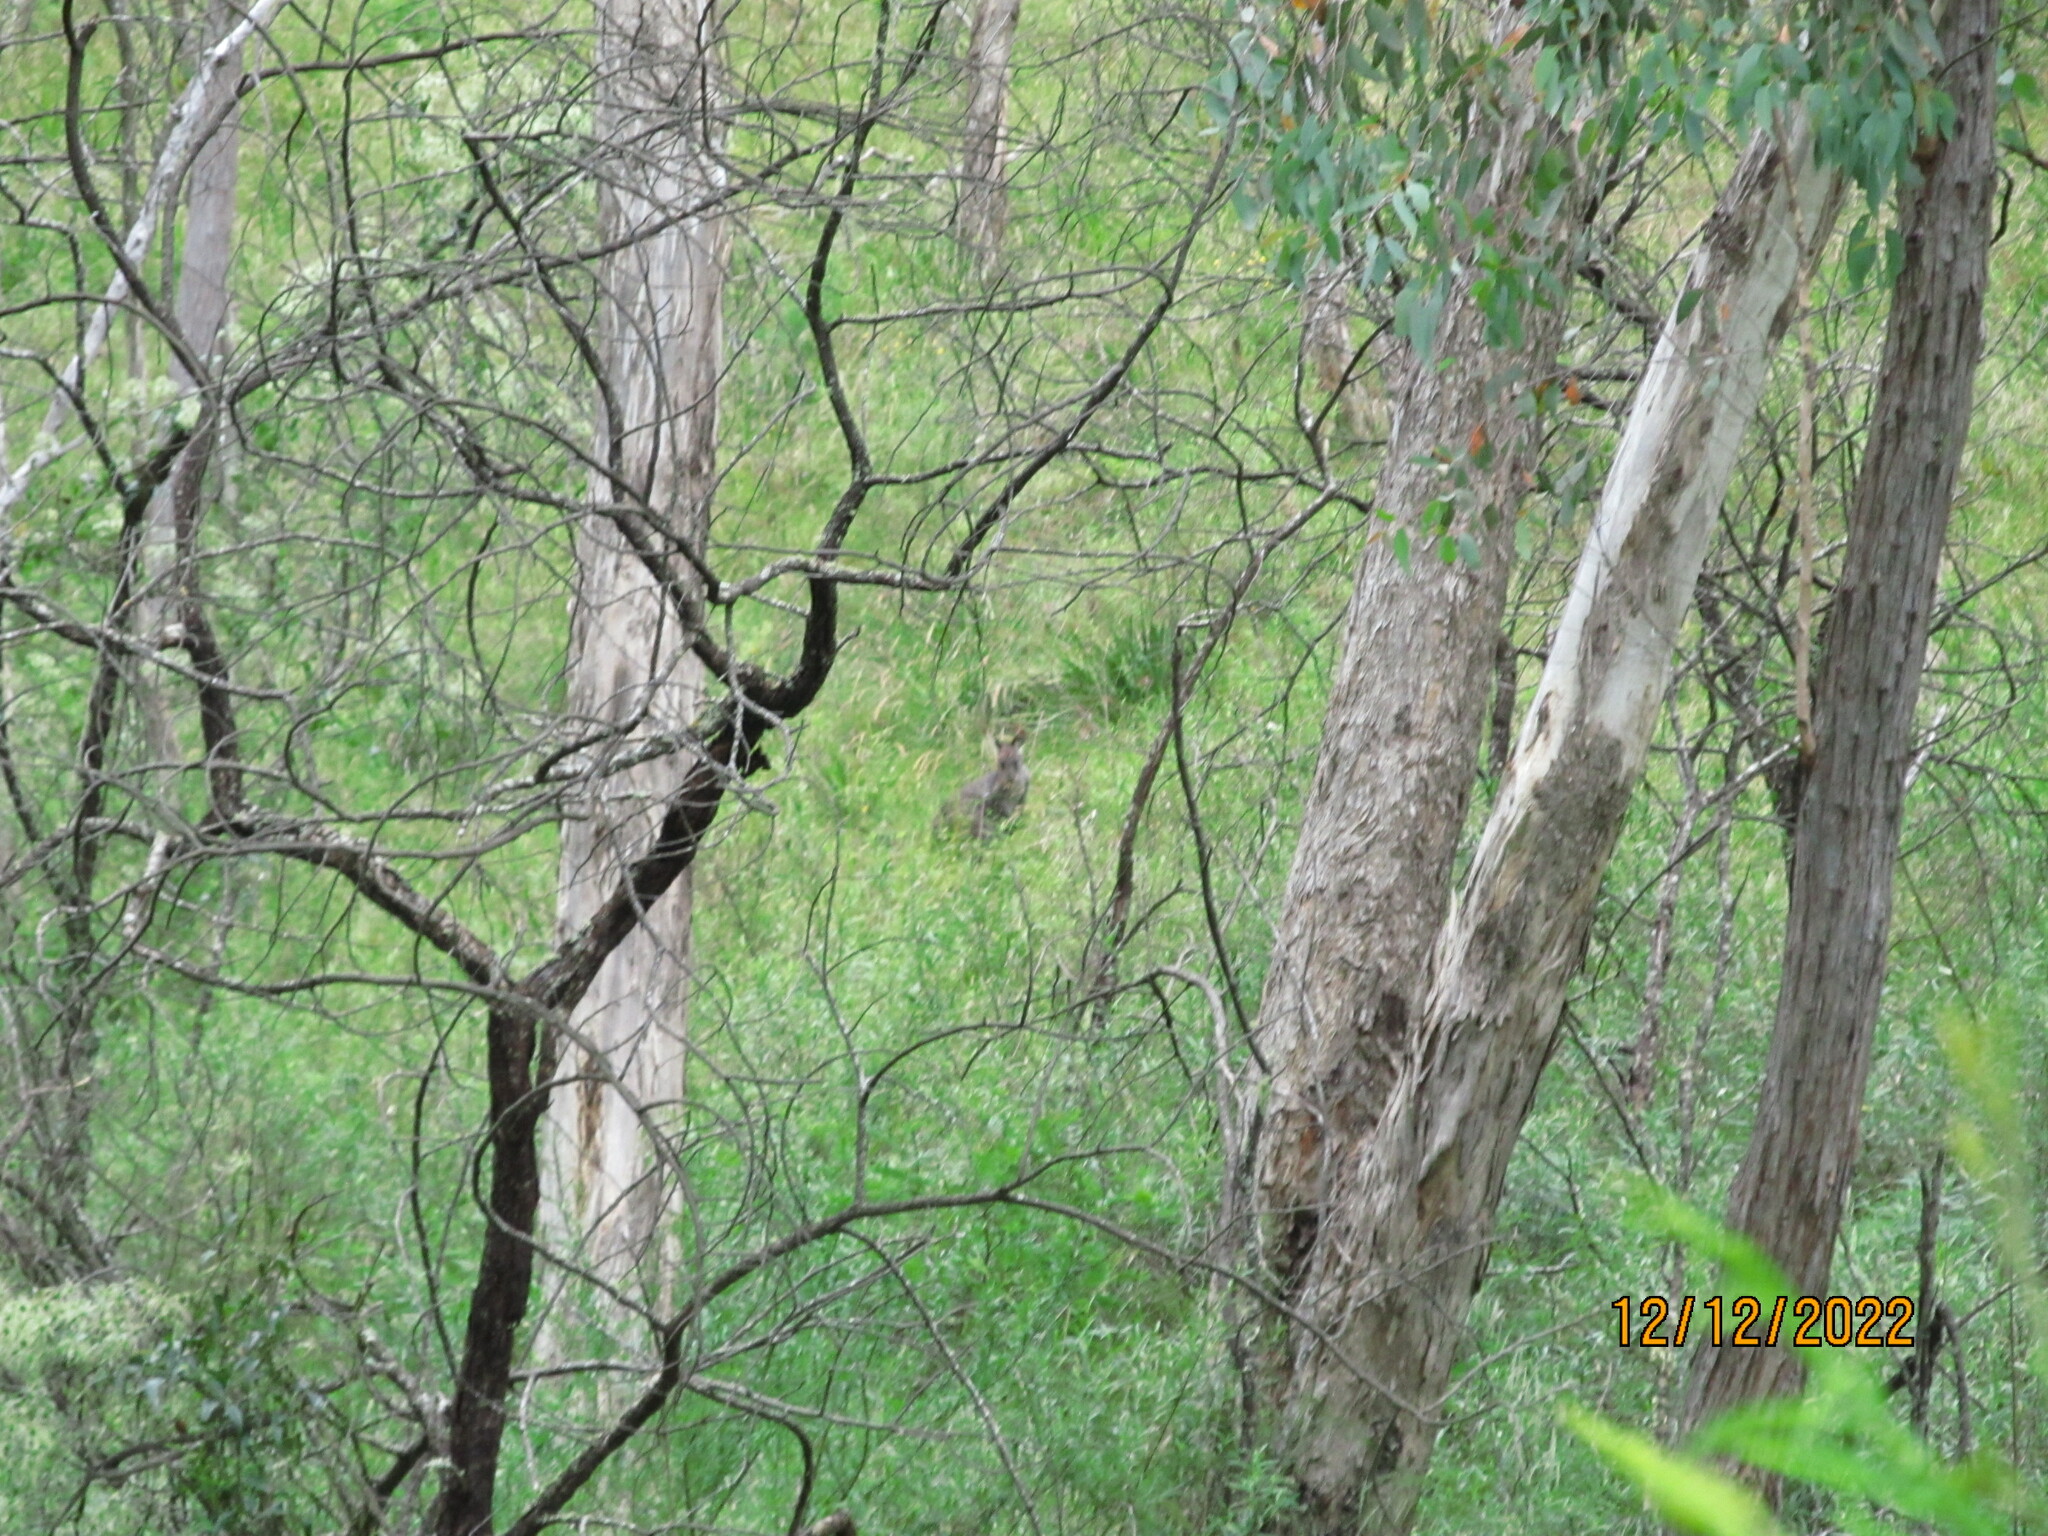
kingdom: Animalia
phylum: Chordata
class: Mammalia
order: Diprotodontia
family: Macropodidae
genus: Macropus
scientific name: Macropus robustus
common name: Eastern wallaroo
